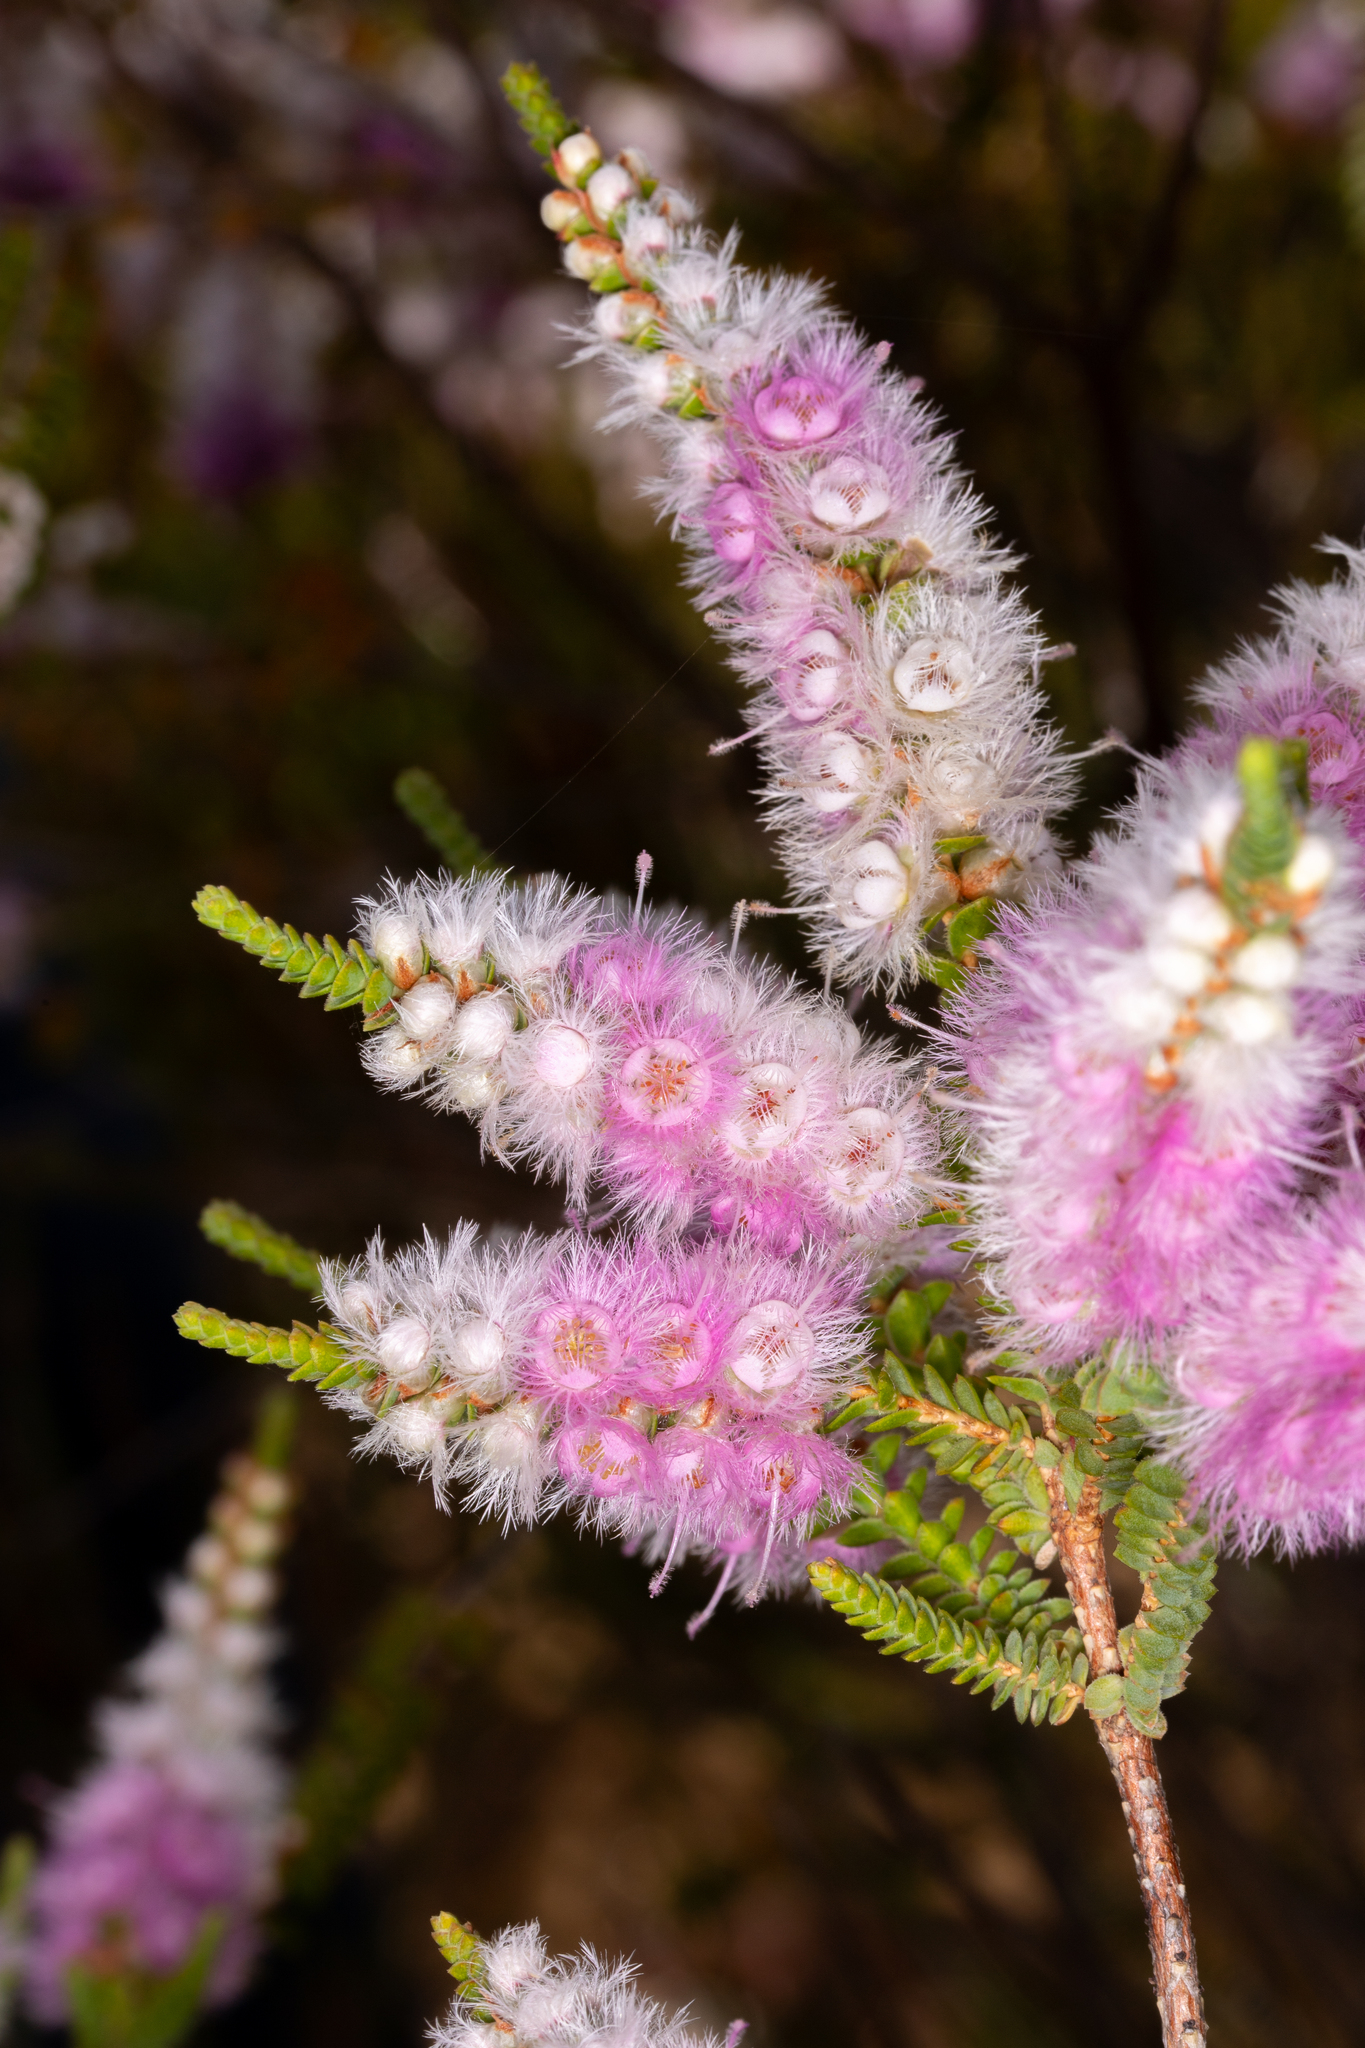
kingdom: Plantae
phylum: Tracheophyta
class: Magnoliopsida
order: Myrtales
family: Myrtaceae
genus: Verticordia
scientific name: Verticordia spicata
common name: Spike feather-flower
